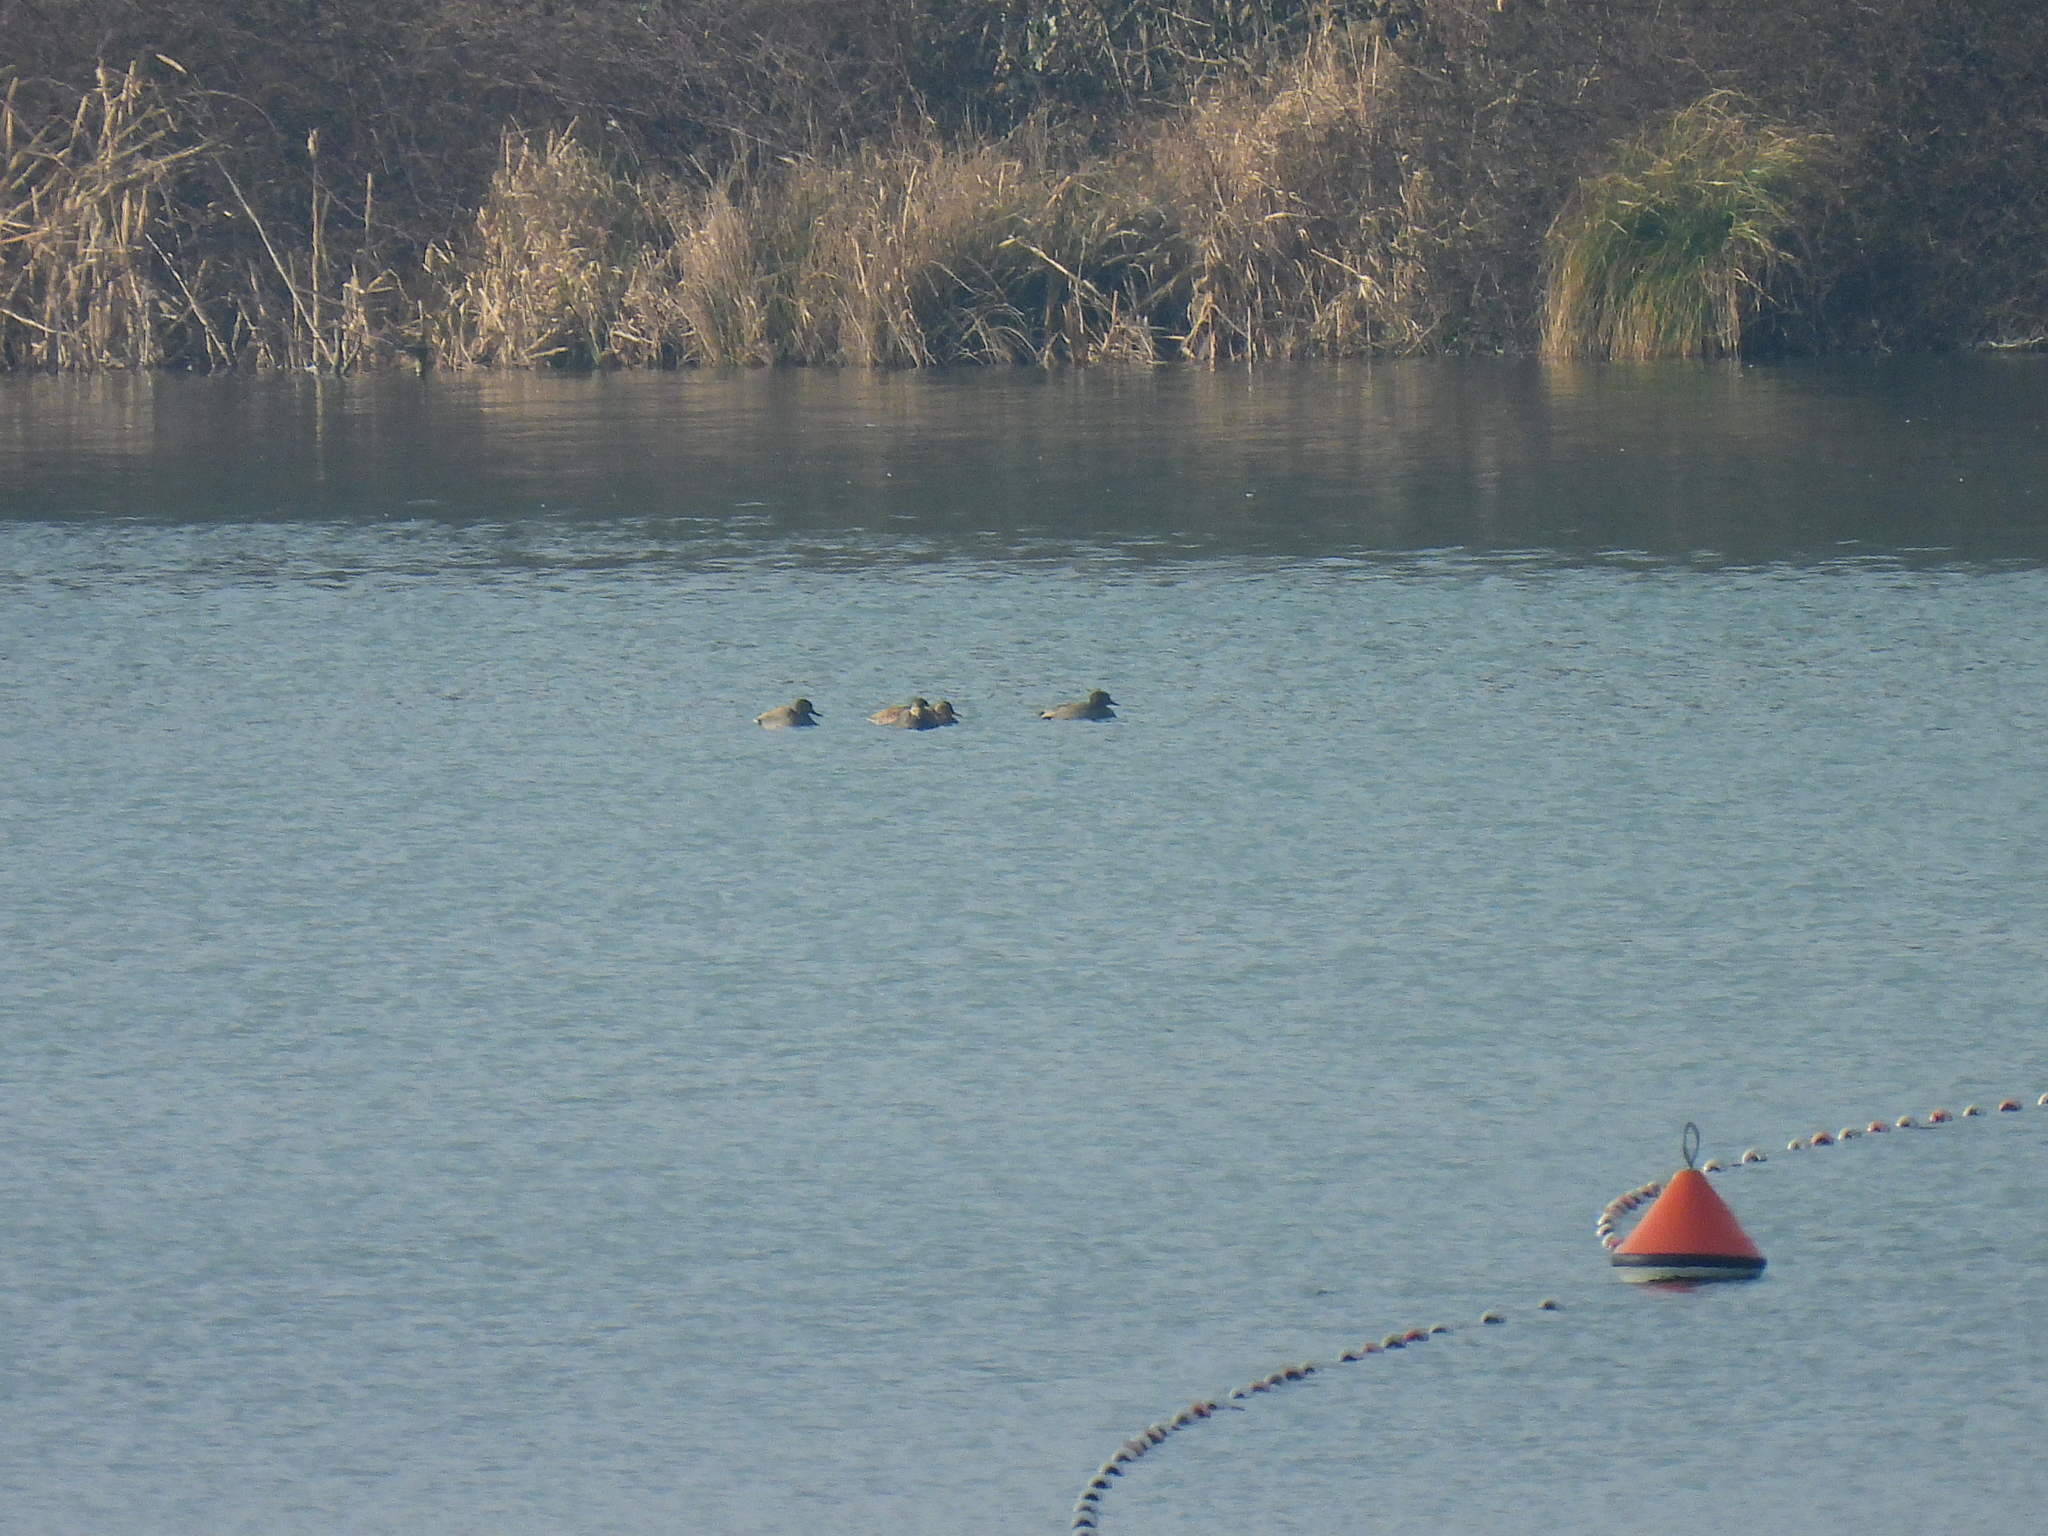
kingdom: Animalia
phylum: Chordata
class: Aves
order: Anseriformes
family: Anatidae
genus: Mareca
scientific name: Mareca strepera
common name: Gadwall
